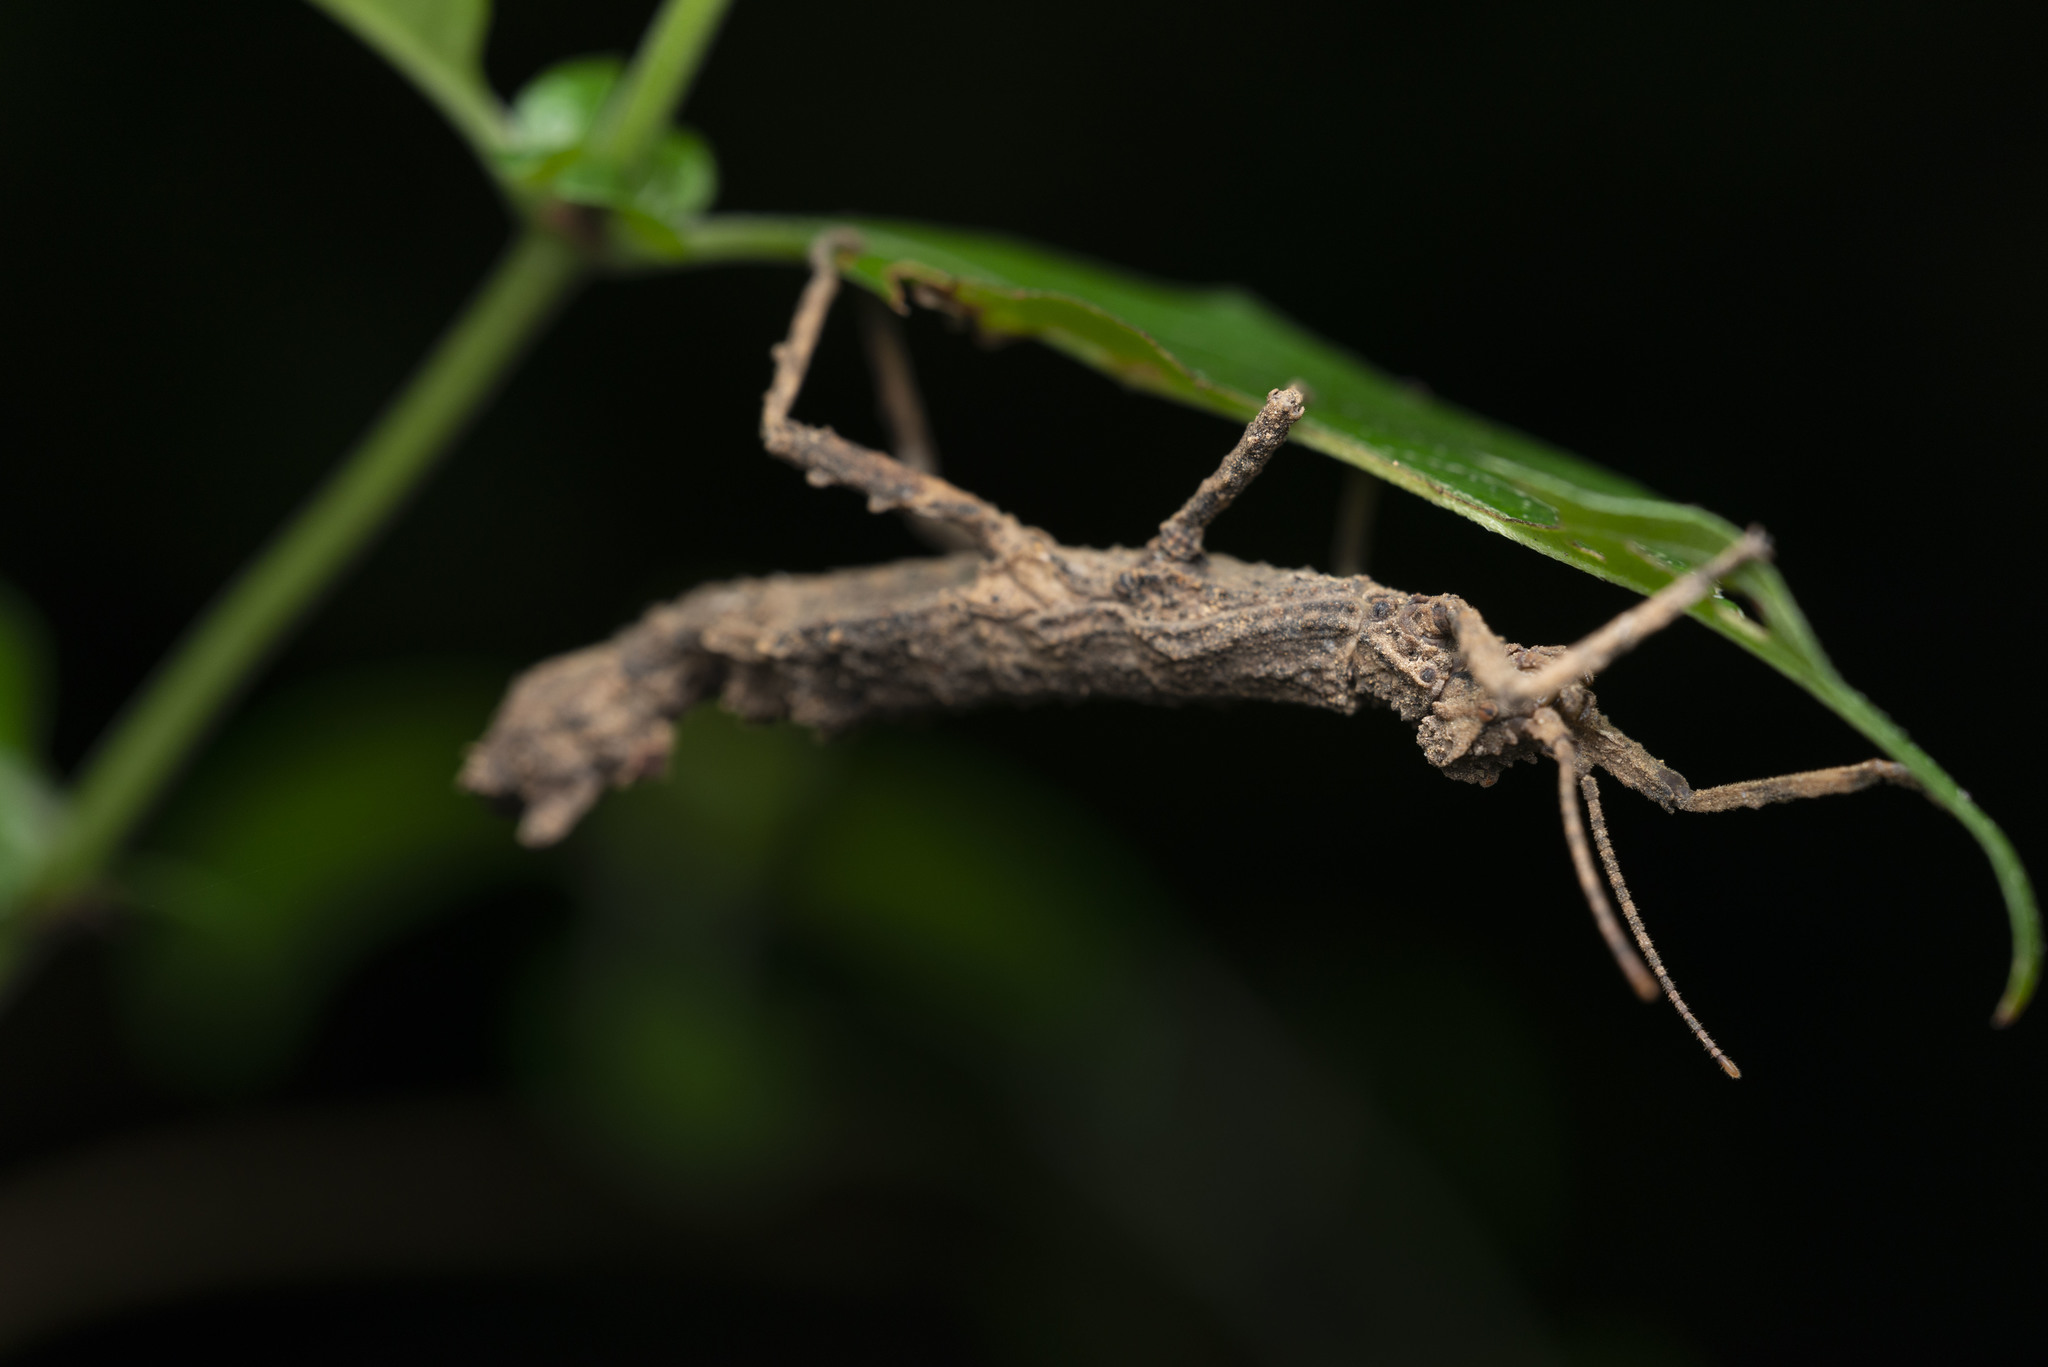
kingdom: Animalia
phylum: Arthropoda
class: Insecta
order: Phasmida
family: Heteropterygidae
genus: Orestes
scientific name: Orestes guangxiensis
